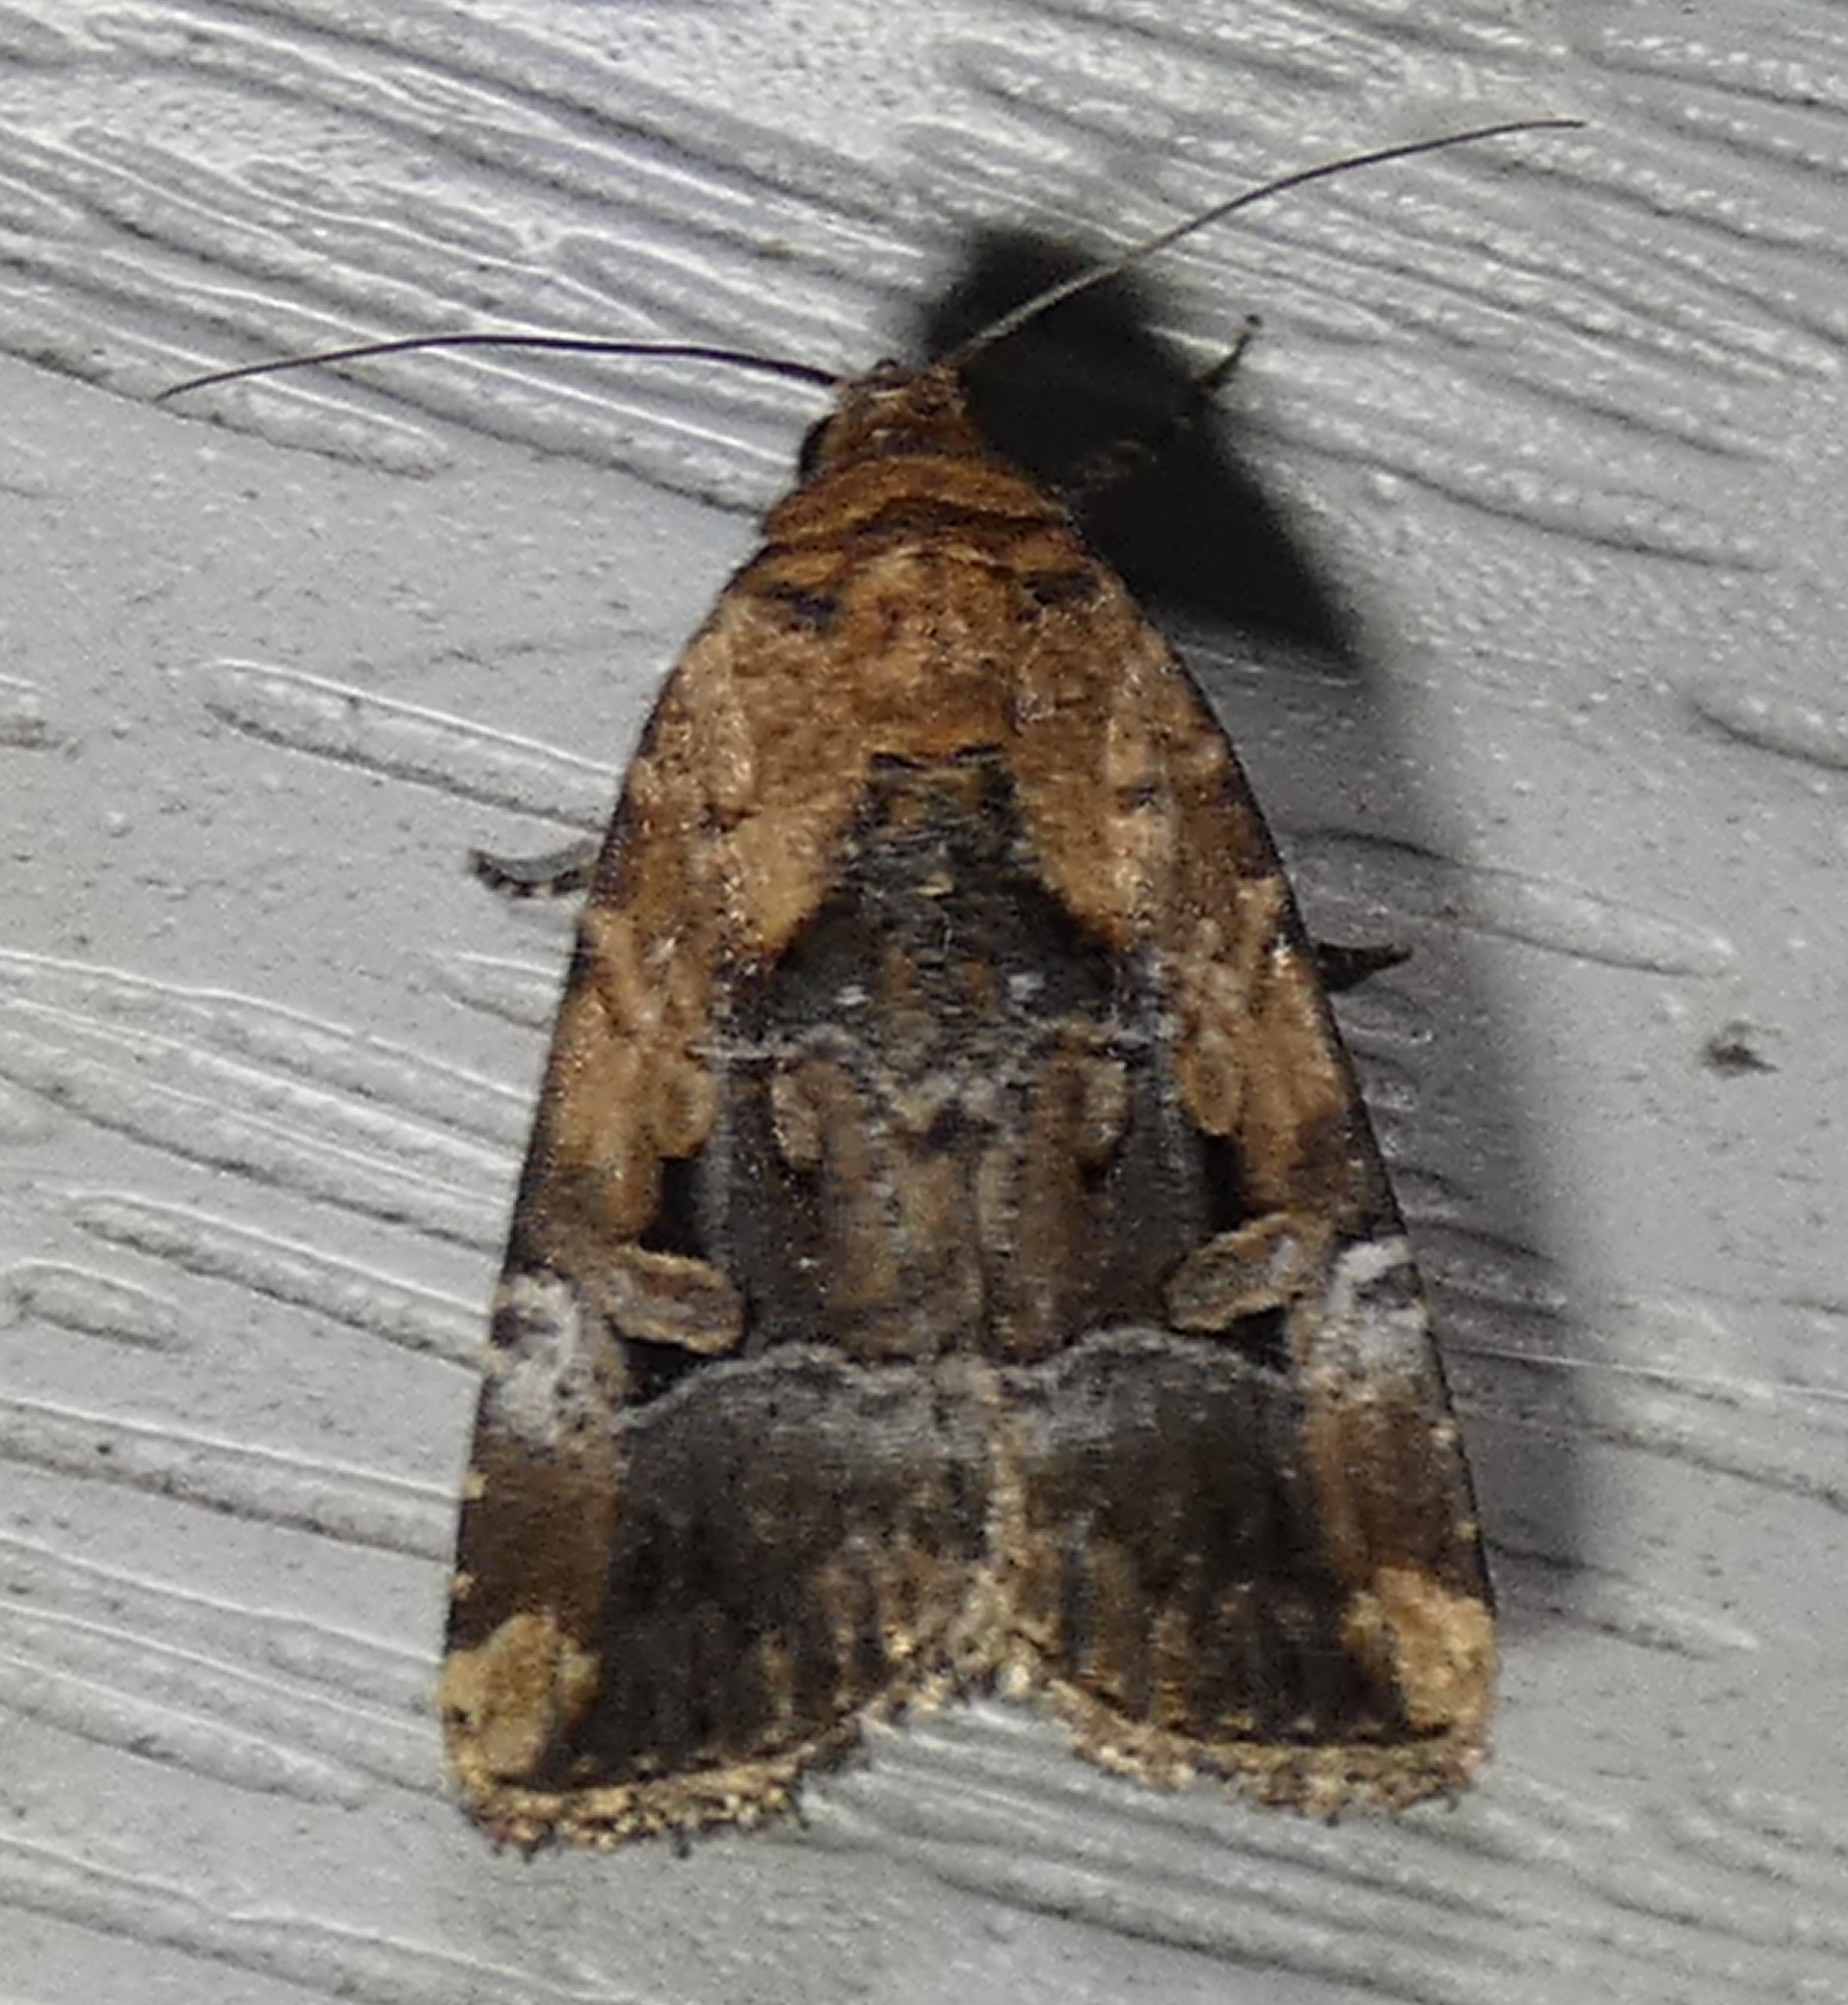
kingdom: Animalia
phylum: Arthropoda
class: Insecta
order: Lepidoptera
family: Noctuidae
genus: Elaphria
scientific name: Elaphria chalcedonia
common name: Chalcedony midget
